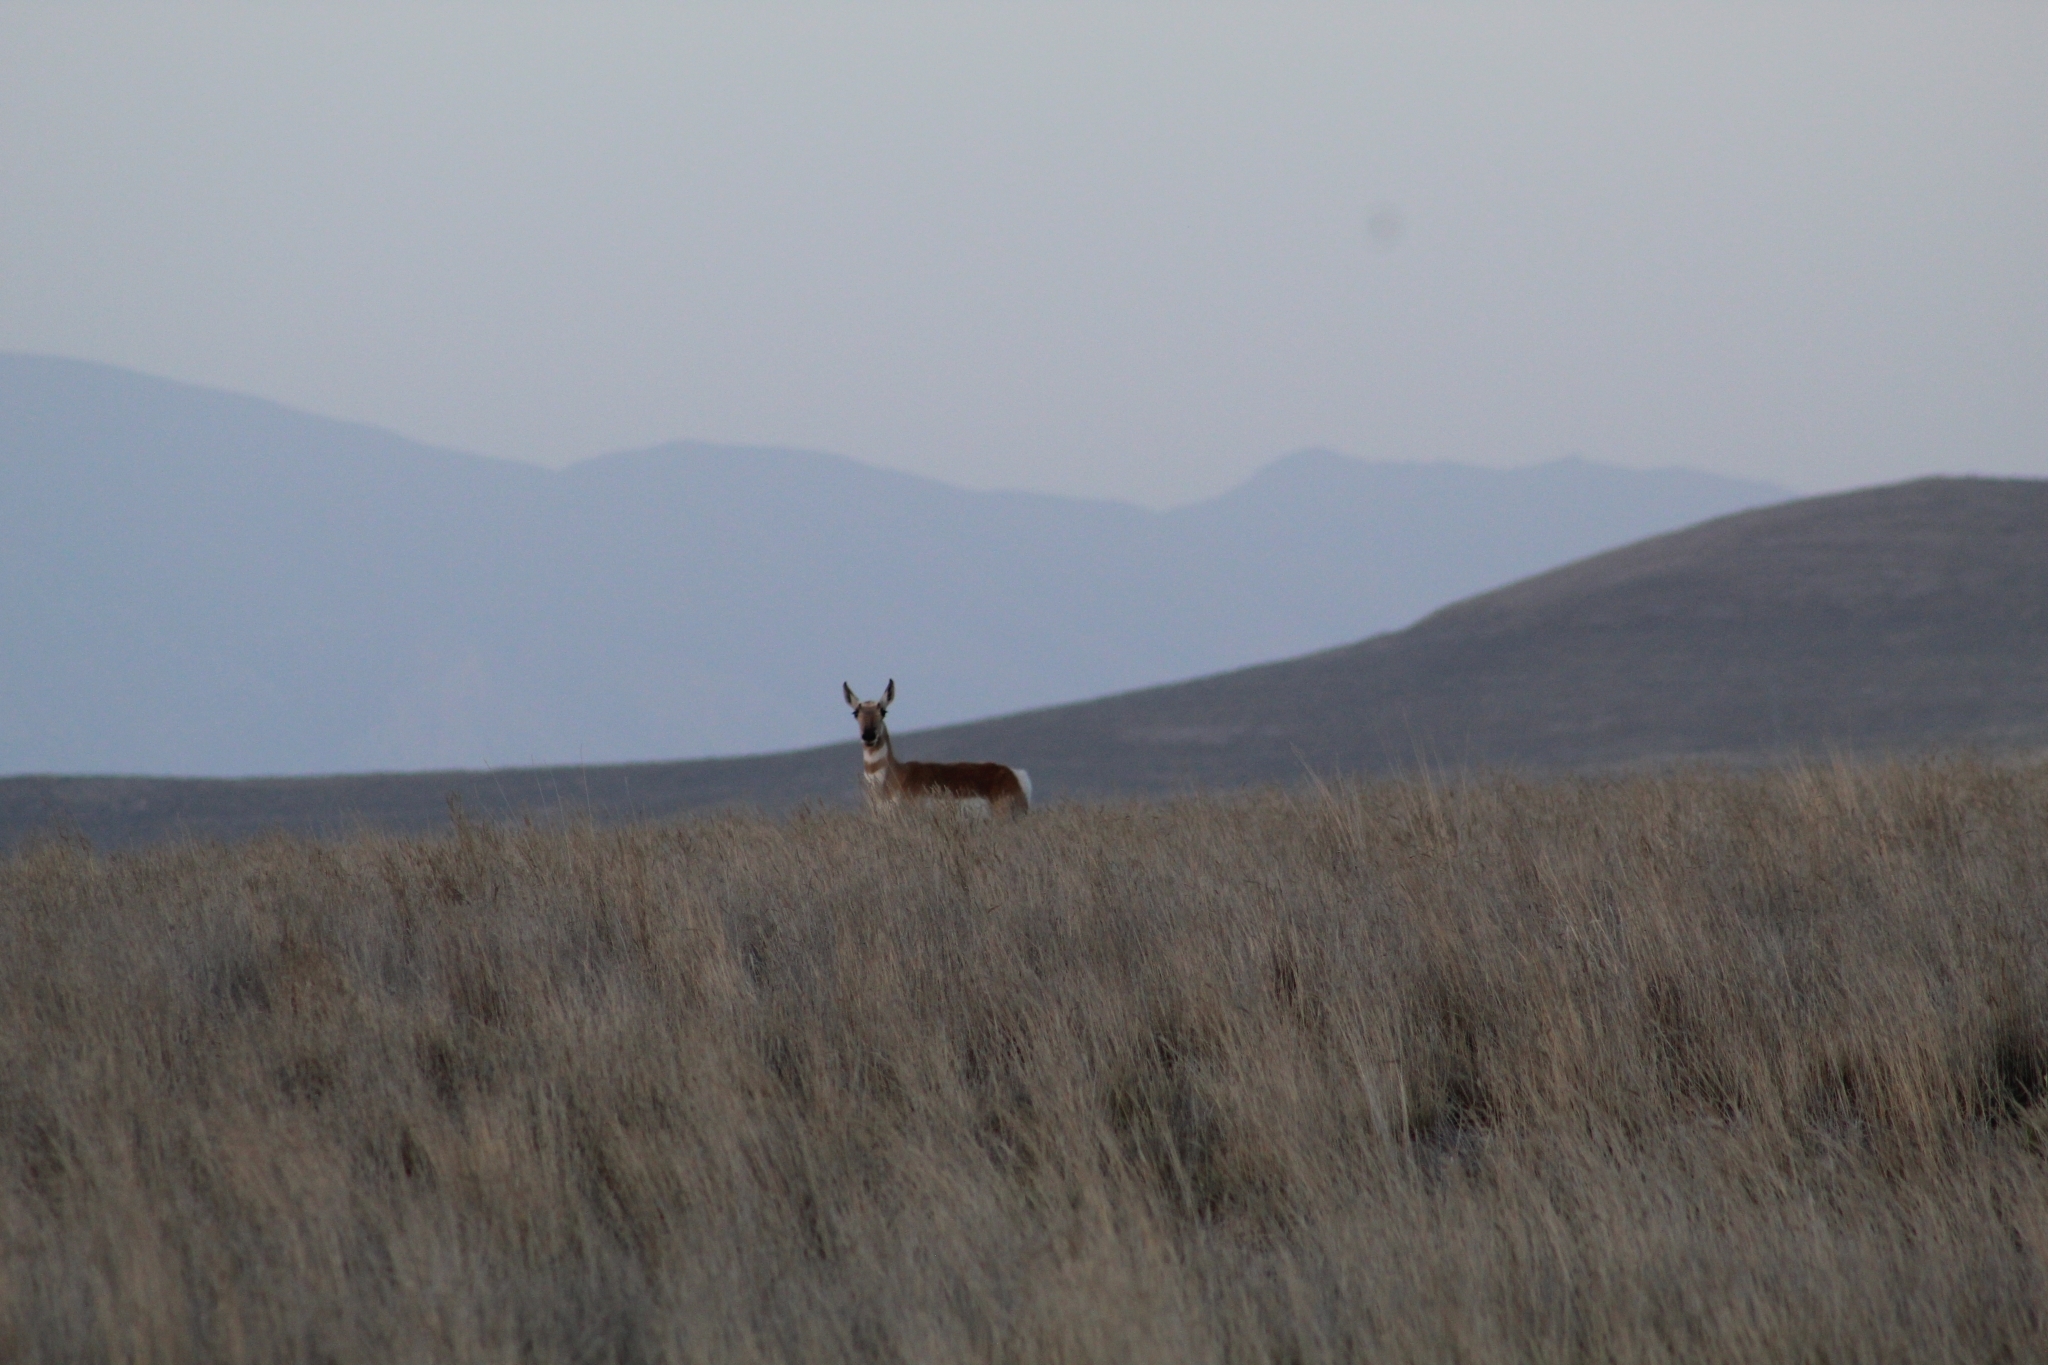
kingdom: Animalia
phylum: Chordata
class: Mammalia
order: Artiodactyla
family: Antilocapridae
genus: Antilocapra
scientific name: Antilocapra americana
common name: Pronghorn
